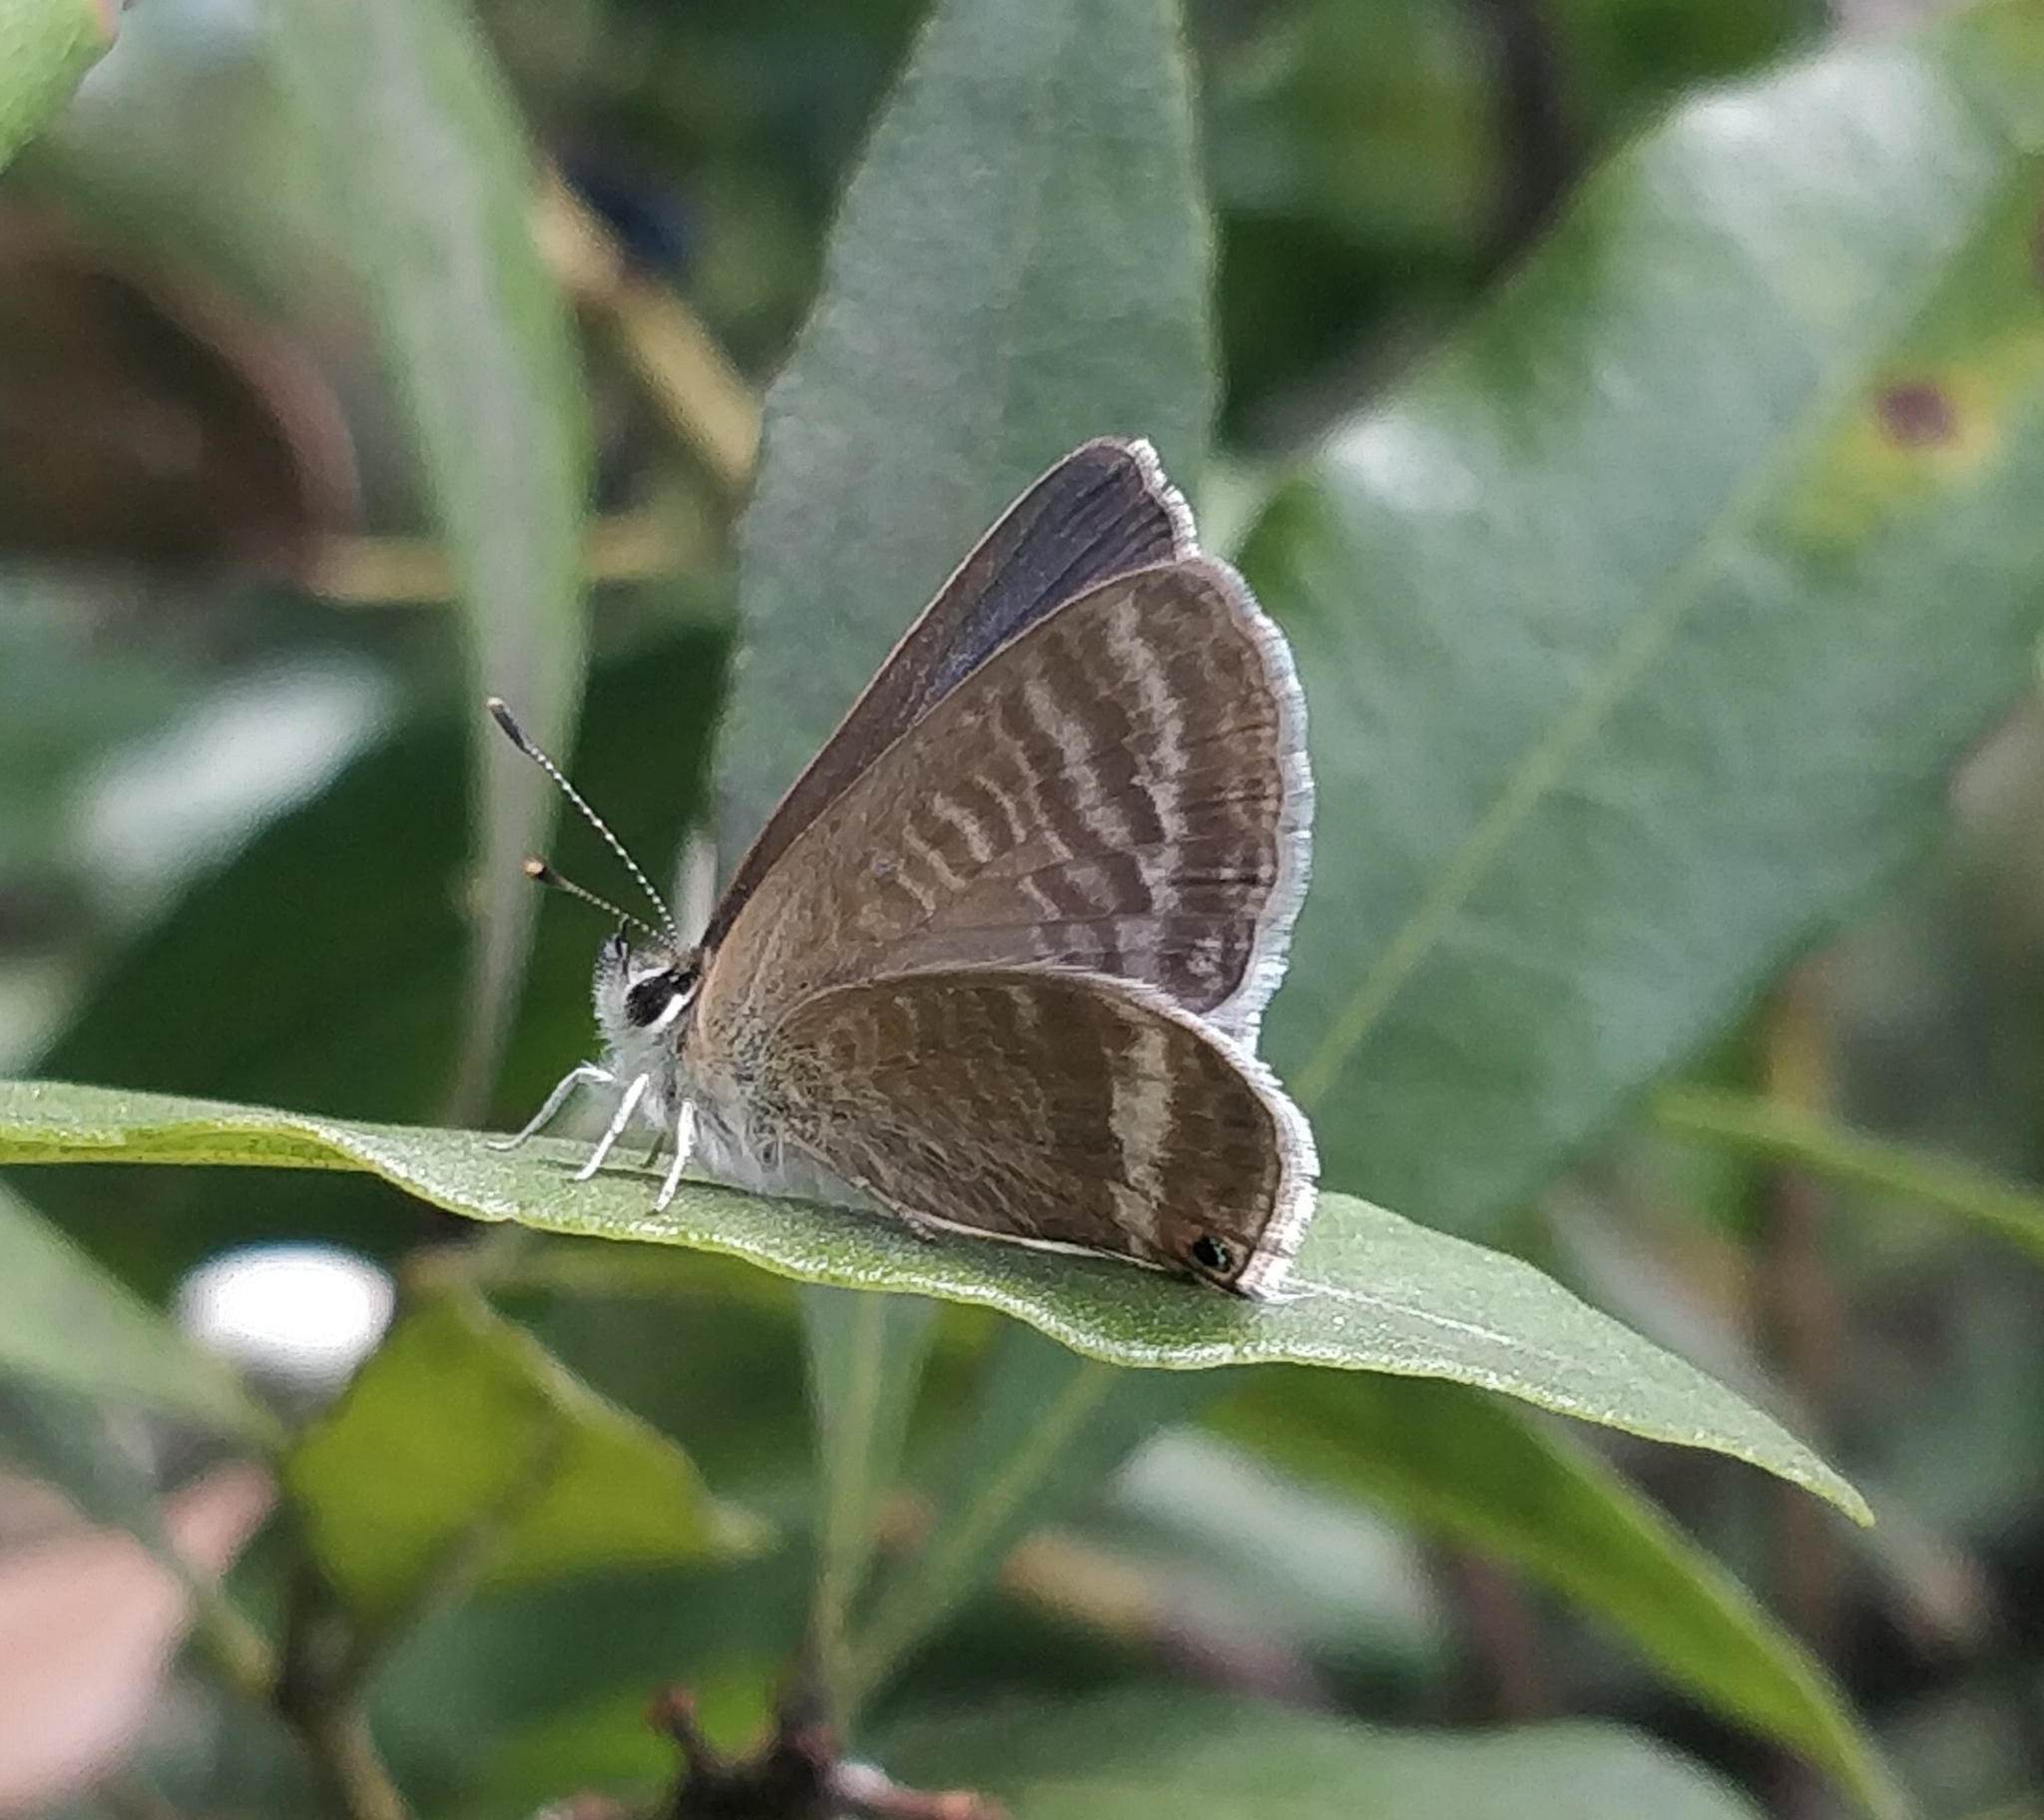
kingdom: Animalia
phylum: Arthropoda
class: Insecta
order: Lepidoptera
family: Lycaenidae
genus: Lampides
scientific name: Lampides boeticus
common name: Long-tailed blue
